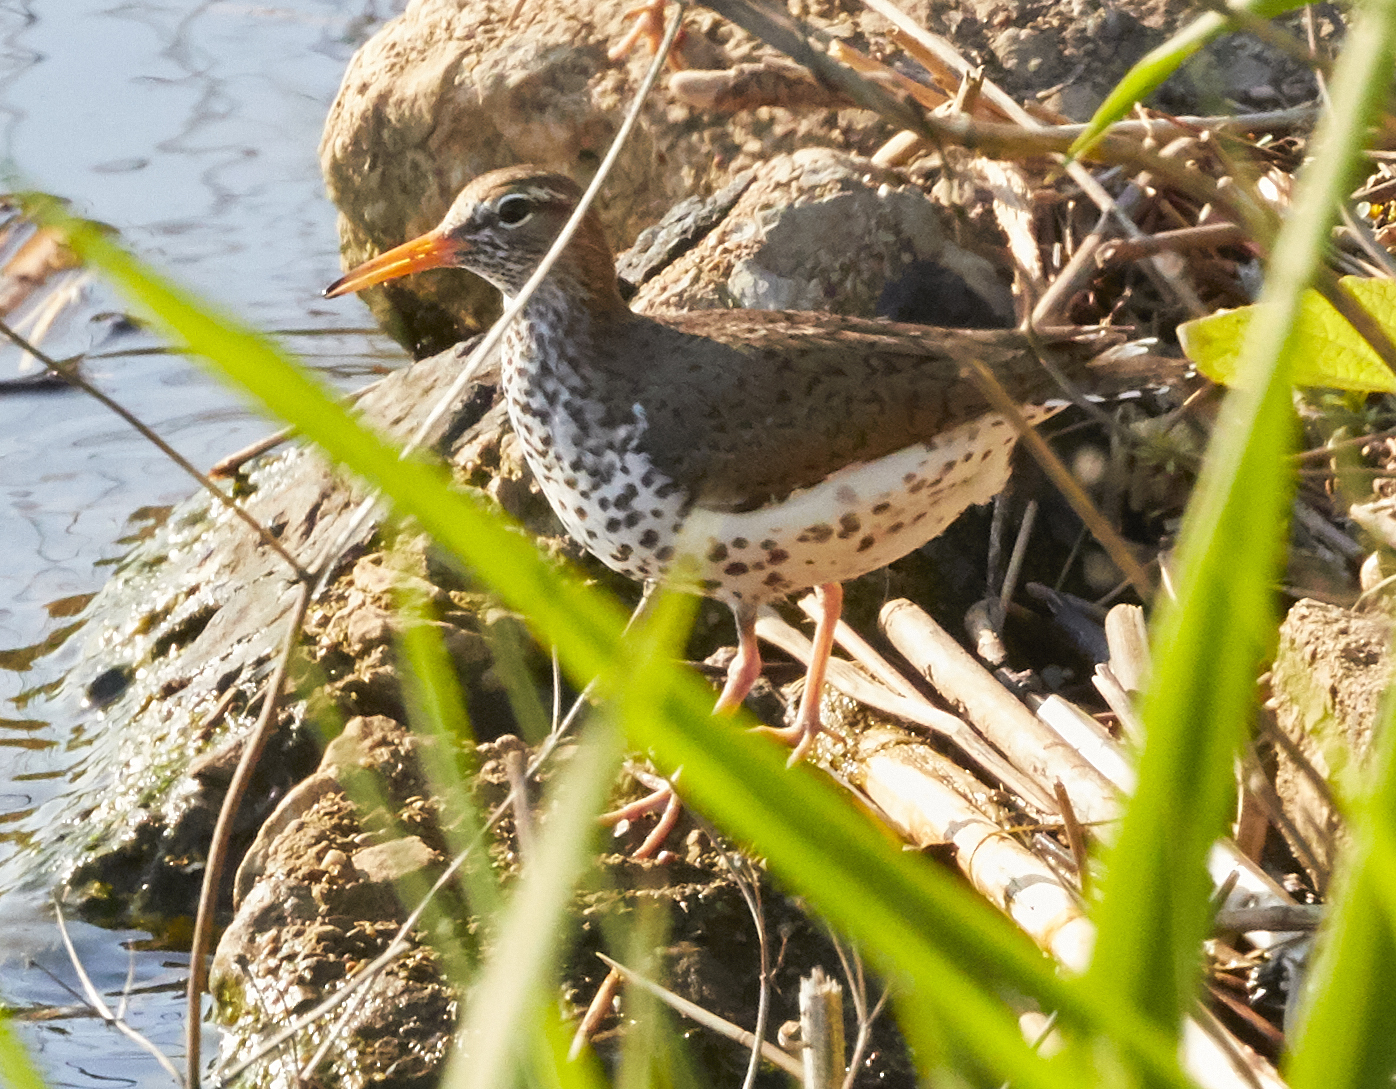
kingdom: Animalia
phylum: Chordata
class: Aves
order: Charadriiformes
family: Scolopacidae
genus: Actitis
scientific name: Actitis macularius
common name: Spotted sandpiper
